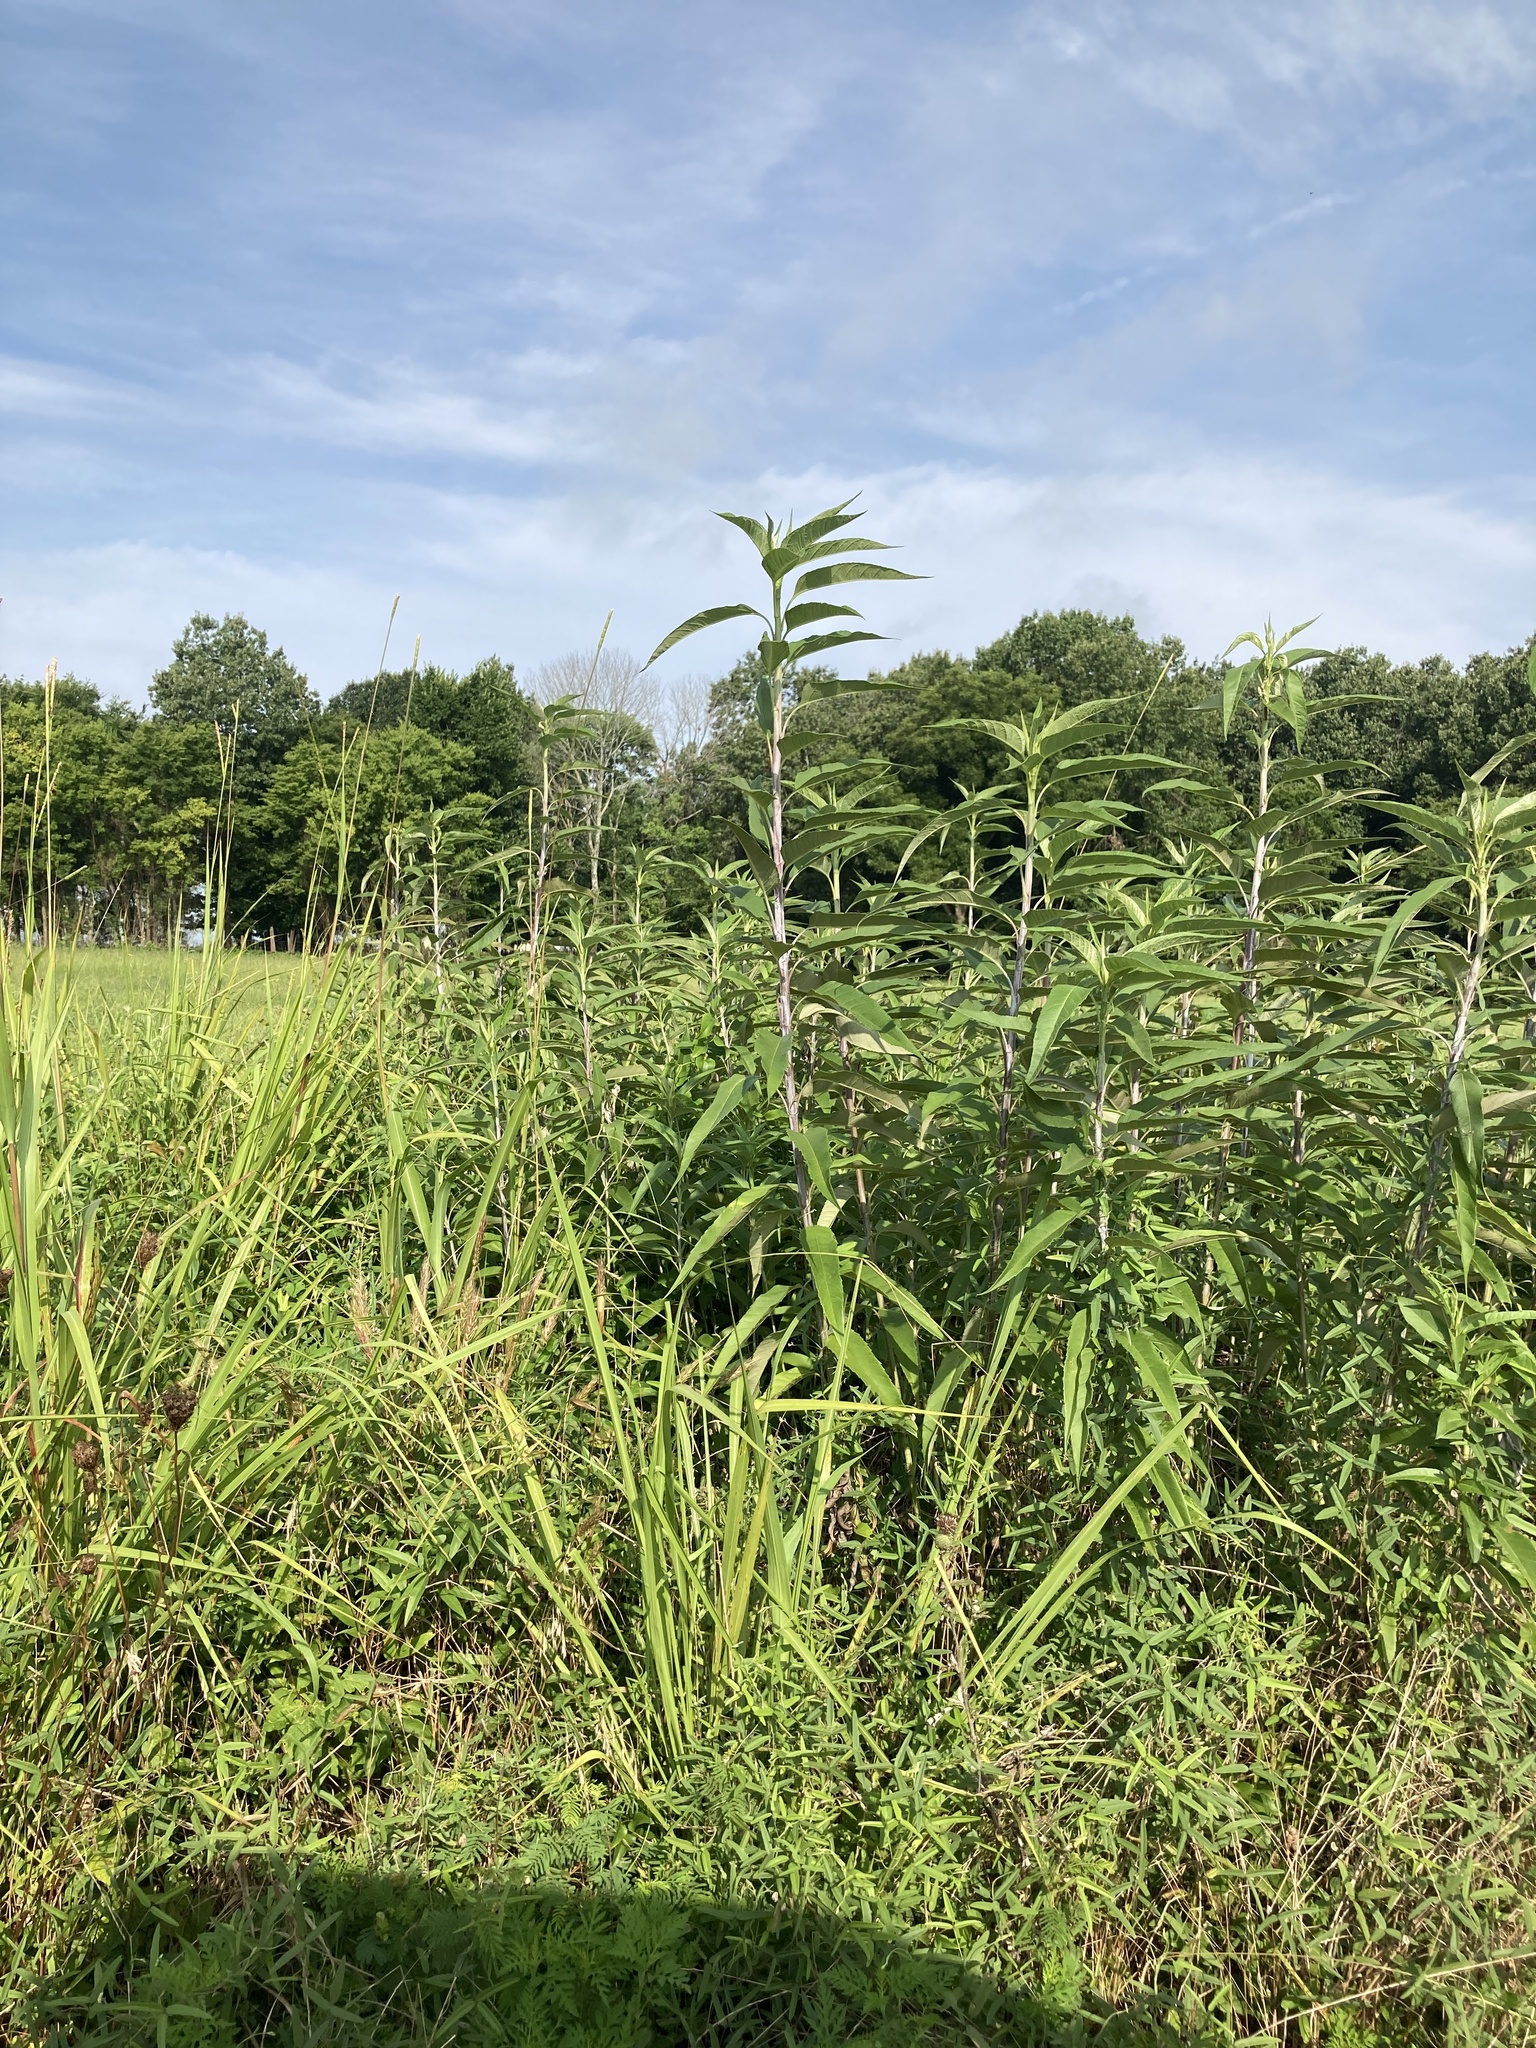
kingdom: Plantae
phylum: Tracheophyta
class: Magnoliopsida
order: Asterales
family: Asteraceae
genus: Helianthus
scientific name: Helianthus grosseserratus
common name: Sawtooth sunflower
